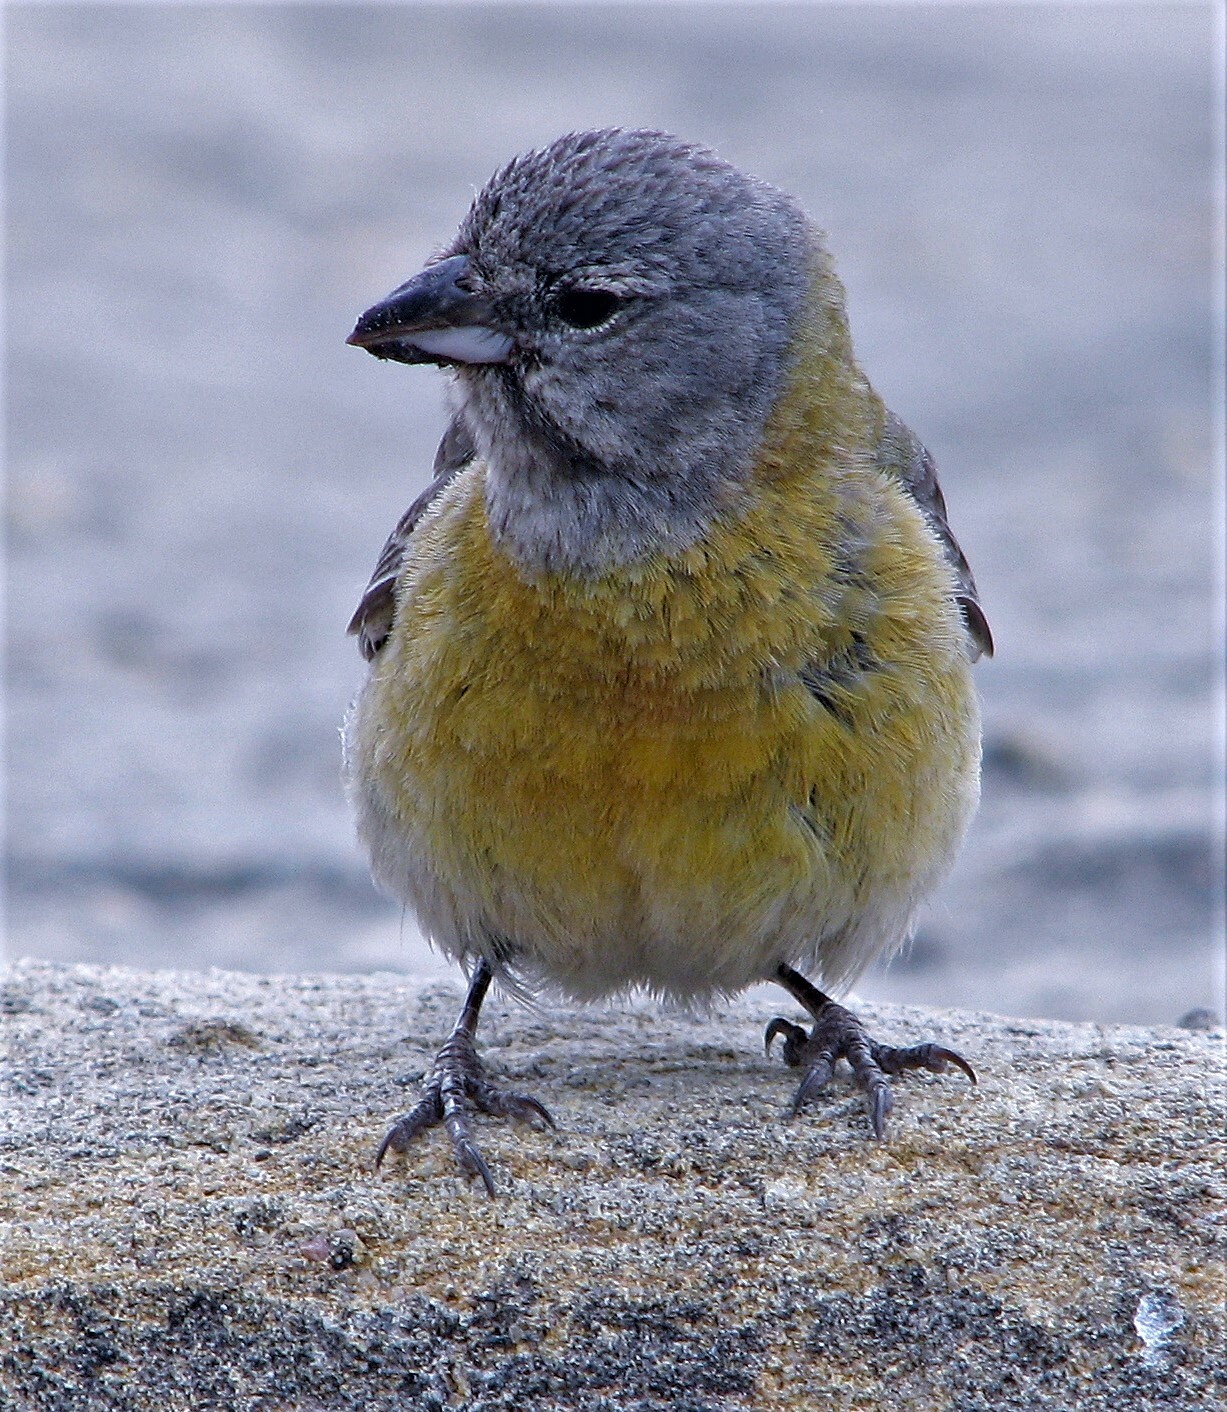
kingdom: Animalia
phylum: Chordata
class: Aves
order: Passeriformes
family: Thraupidae
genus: Phrygilus
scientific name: Phrygilus gayi
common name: Grey-hooded sierra finch
